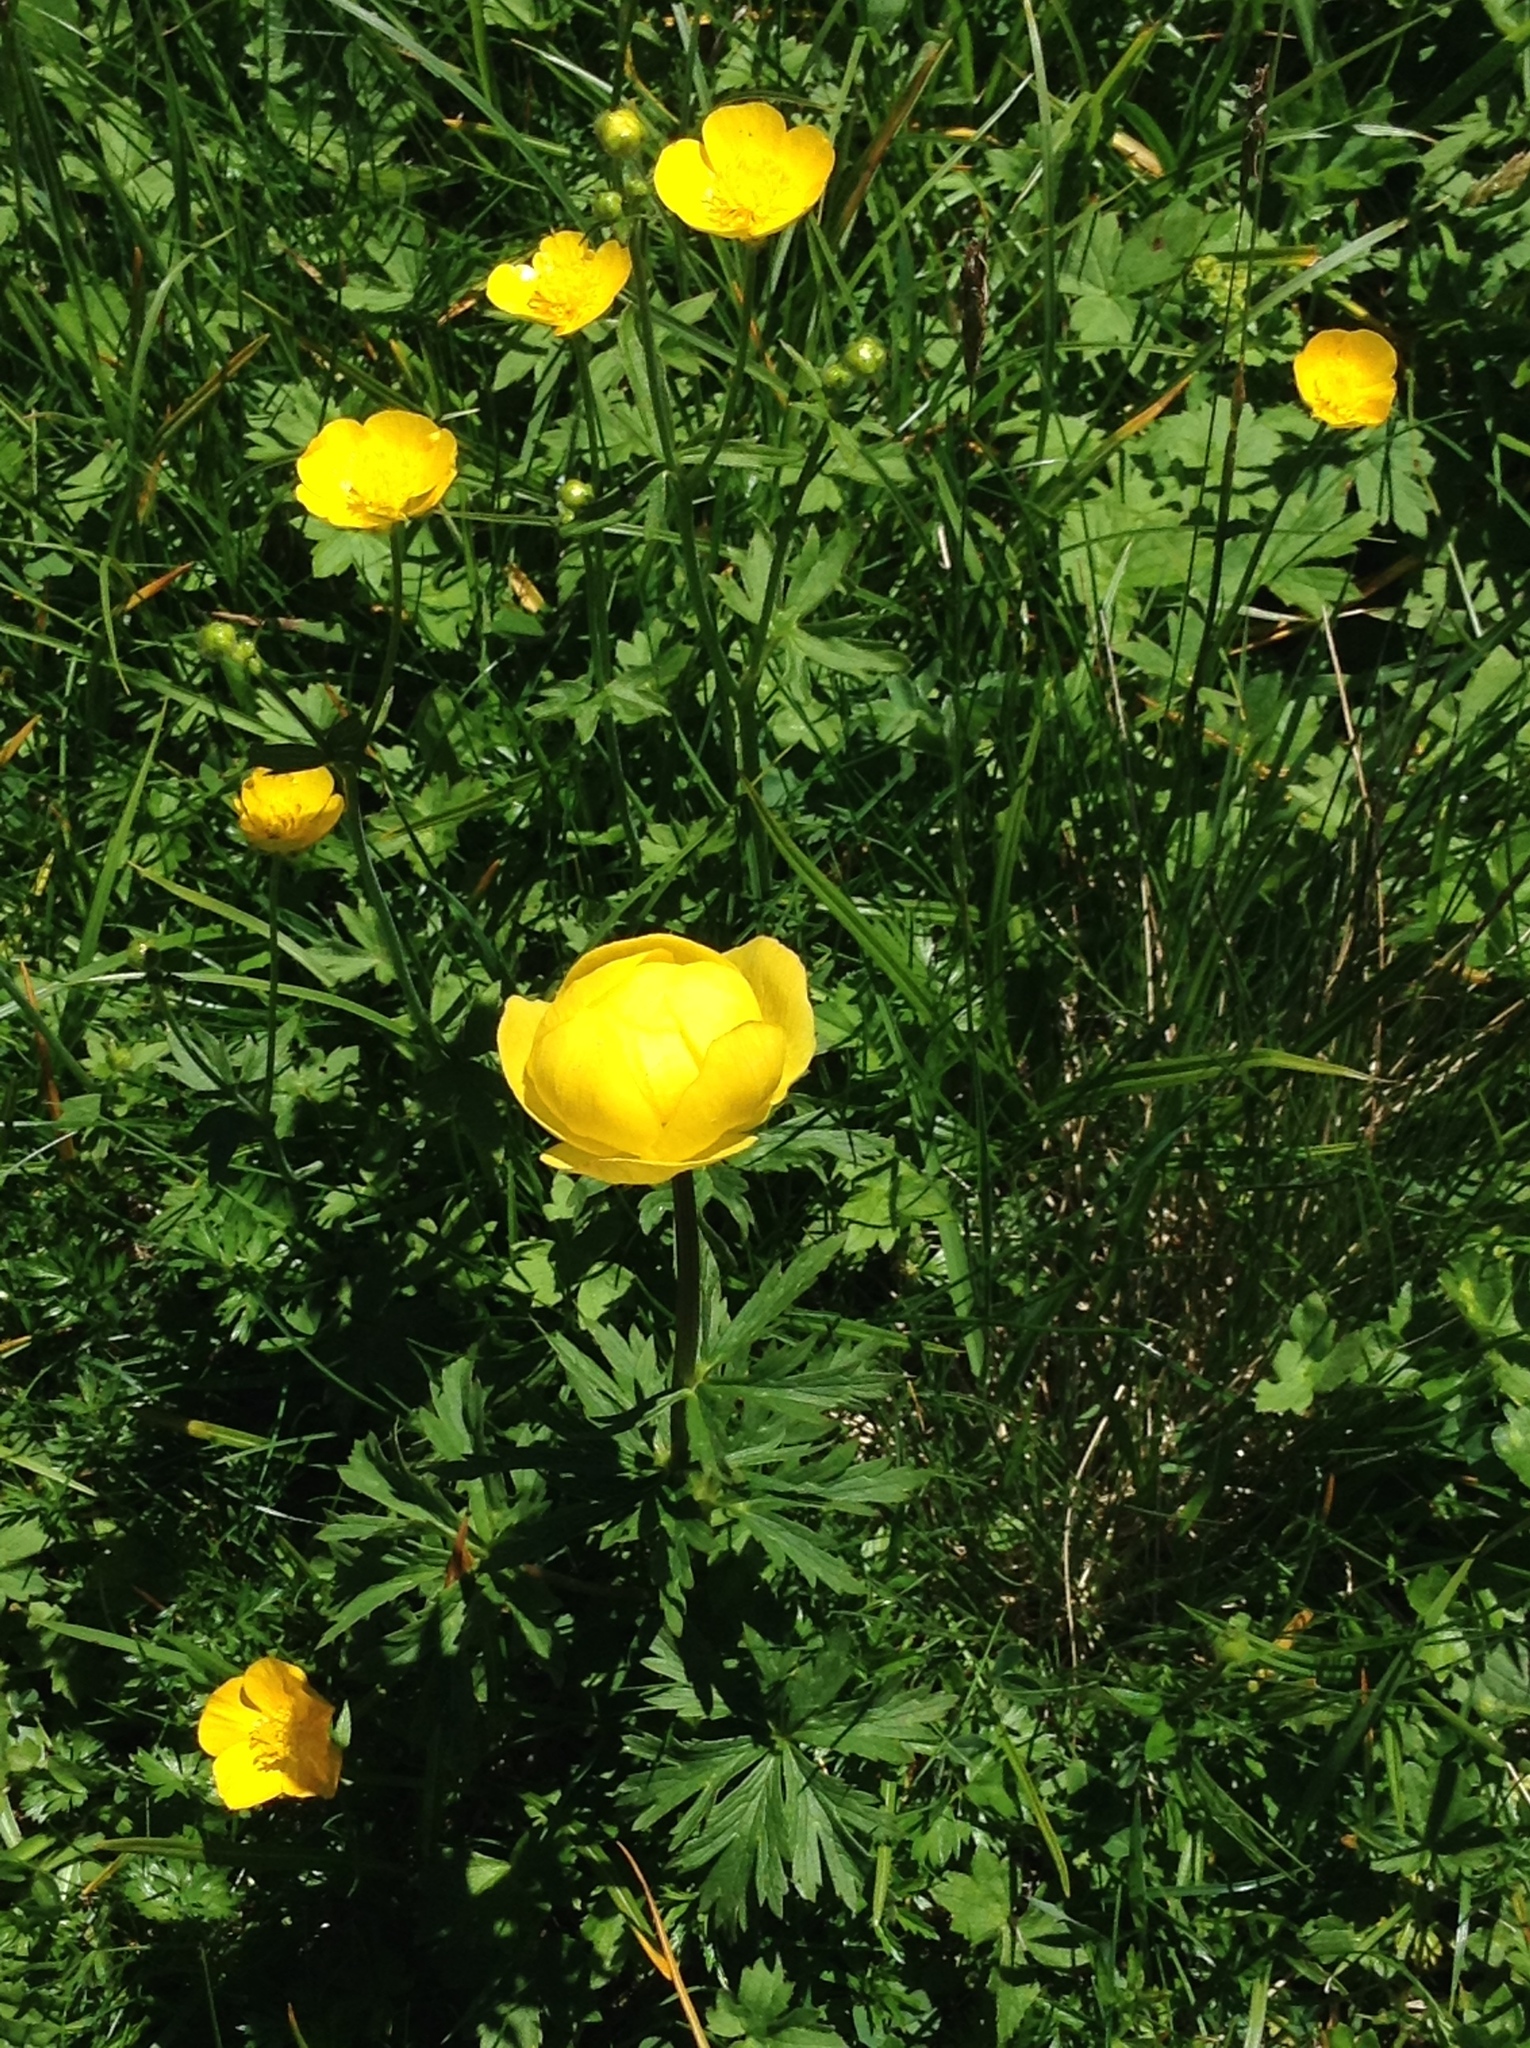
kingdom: Plantae
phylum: Tracheophyta
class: Magnoliopsida
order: Ranunculales
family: Ranunculaceae
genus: Trollius
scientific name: Trollius europaeus
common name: European globeflower
